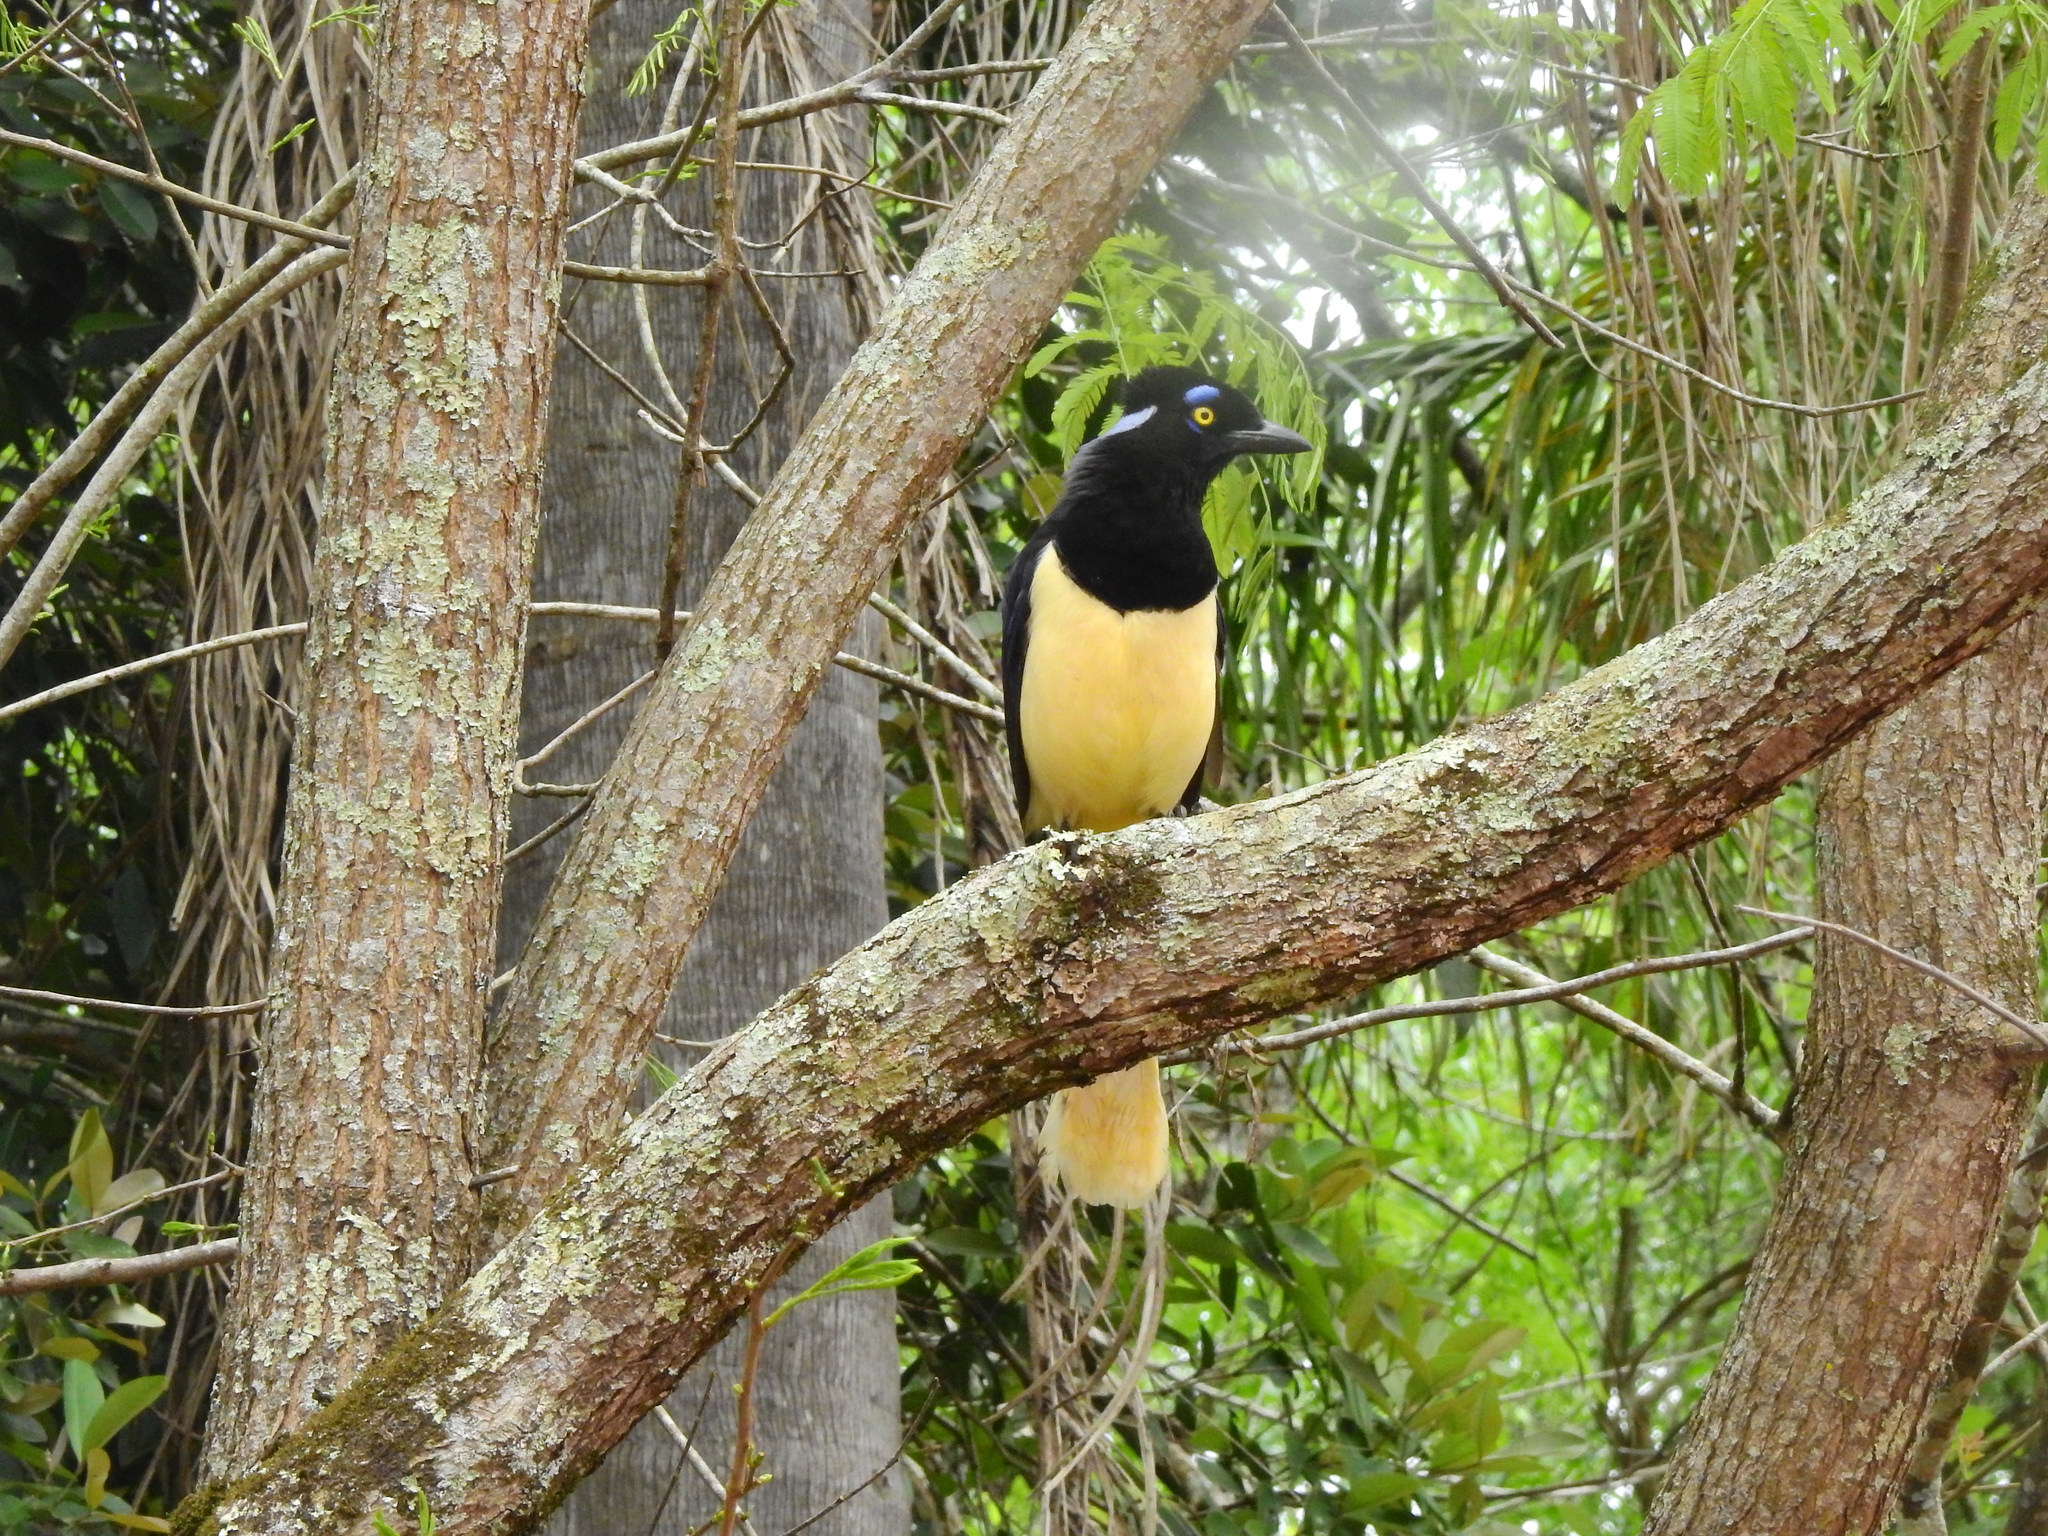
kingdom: Animalia
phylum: Chordata
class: Aves
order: Passeriformes
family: Corvidae
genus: Cyanocorax
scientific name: Cyanocorax chrysops
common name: Plush-crested jay
